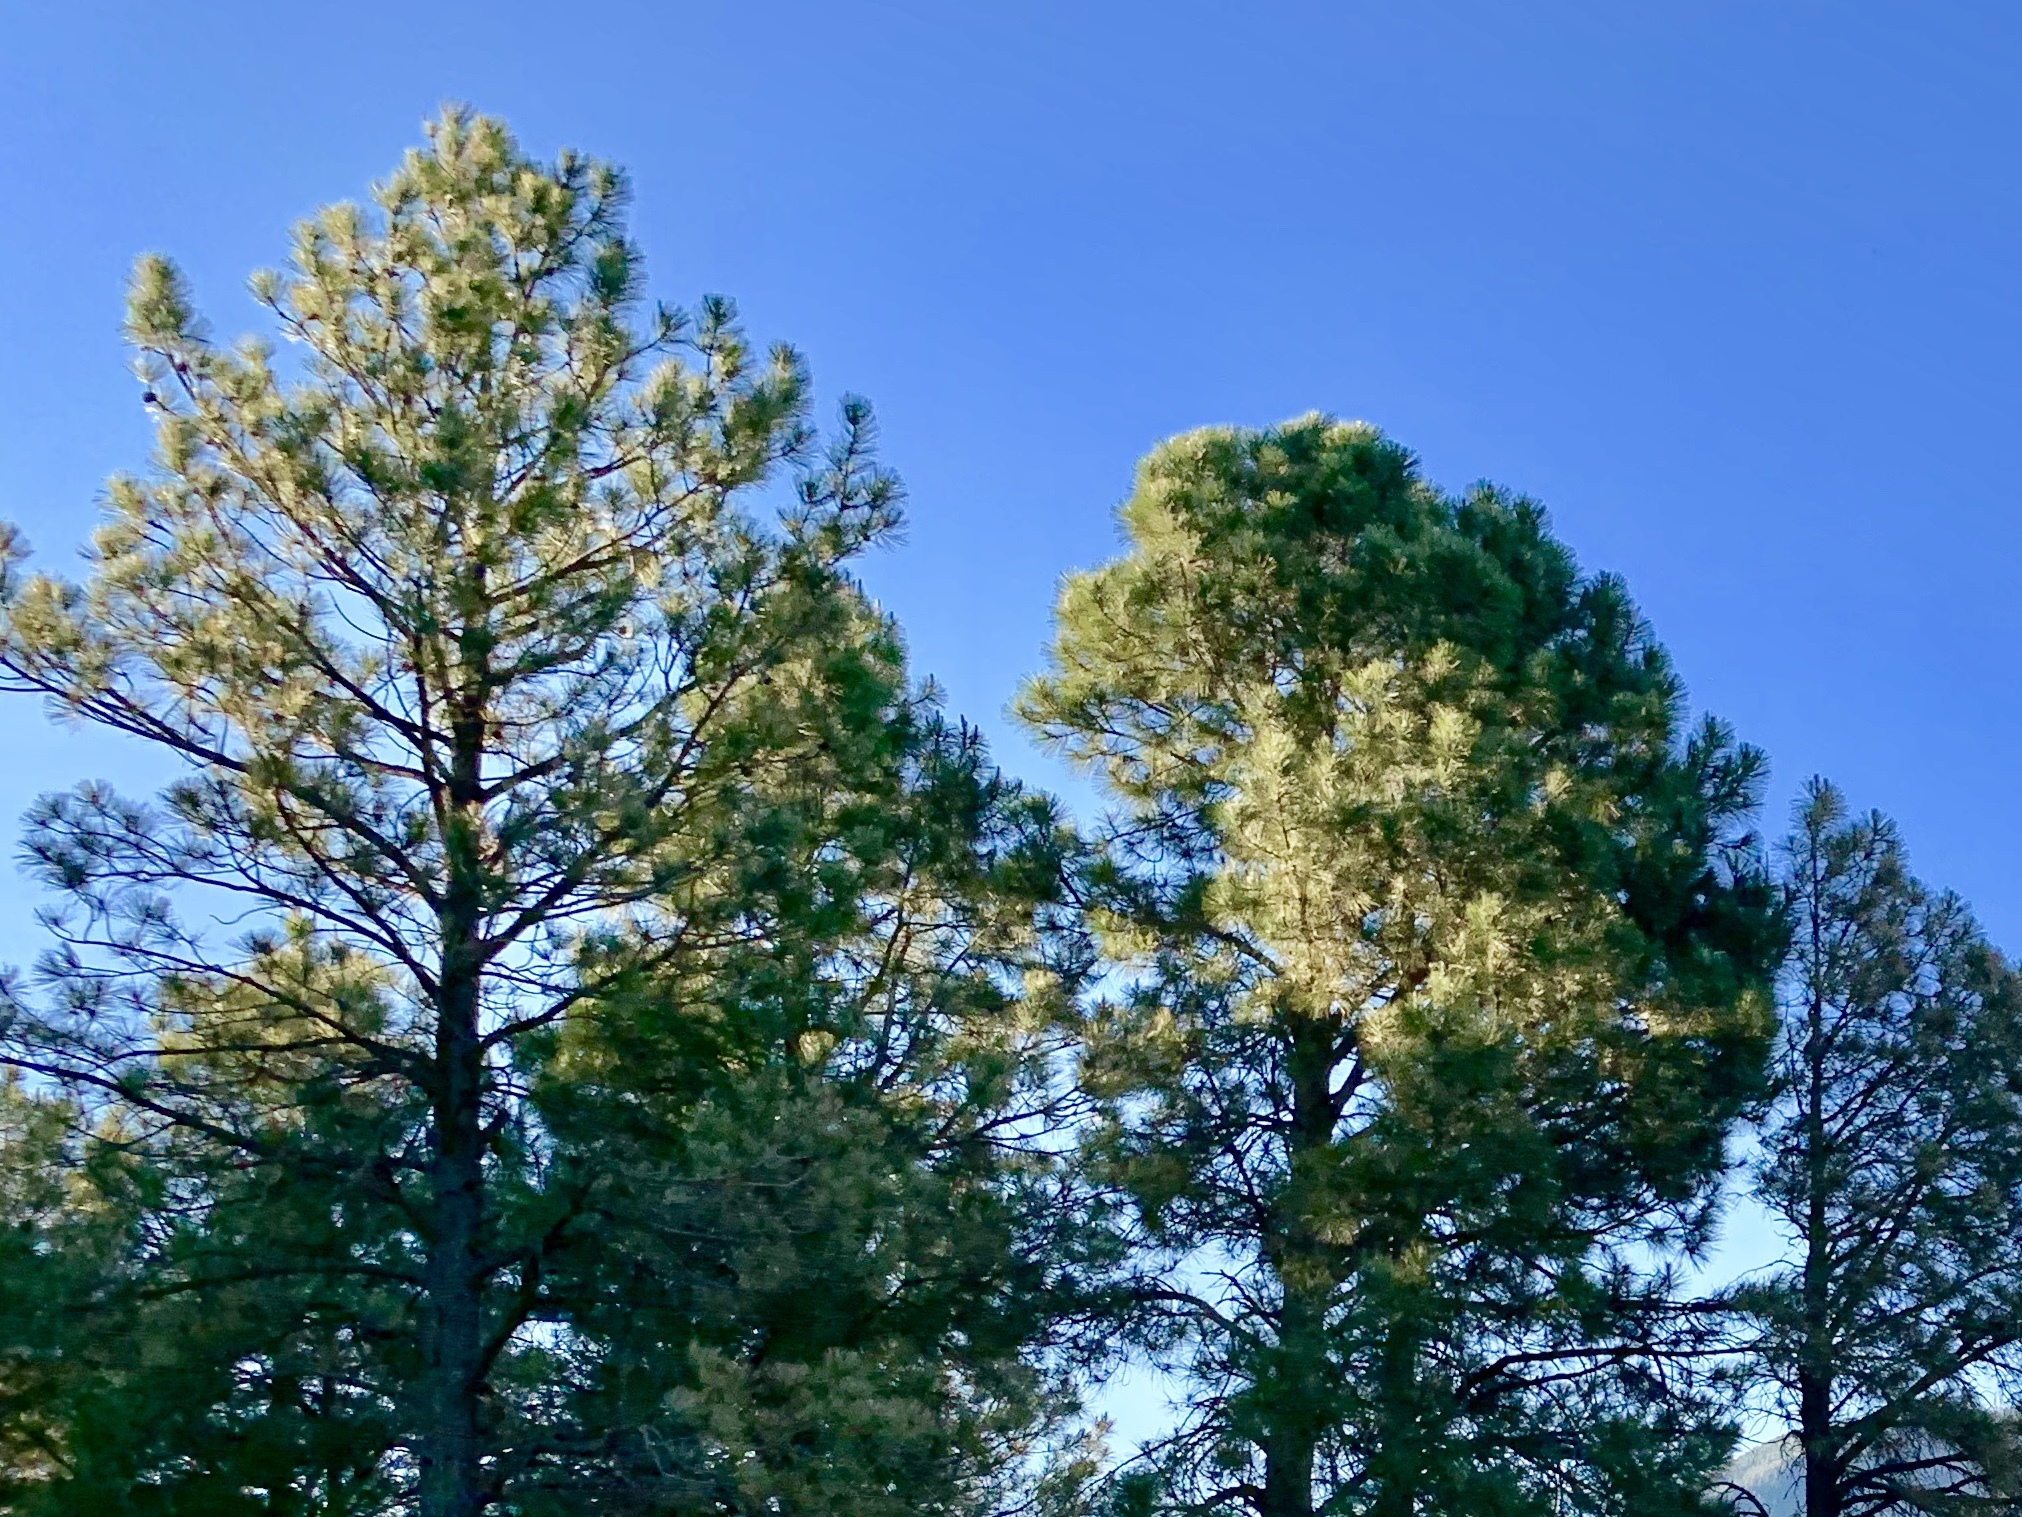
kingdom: Plantae
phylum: Tracheophyta
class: Pinopsida
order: Pinales
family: Pinaceae
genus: Pinus
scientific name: Pinus ponderosa
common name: Western yellow-pine
